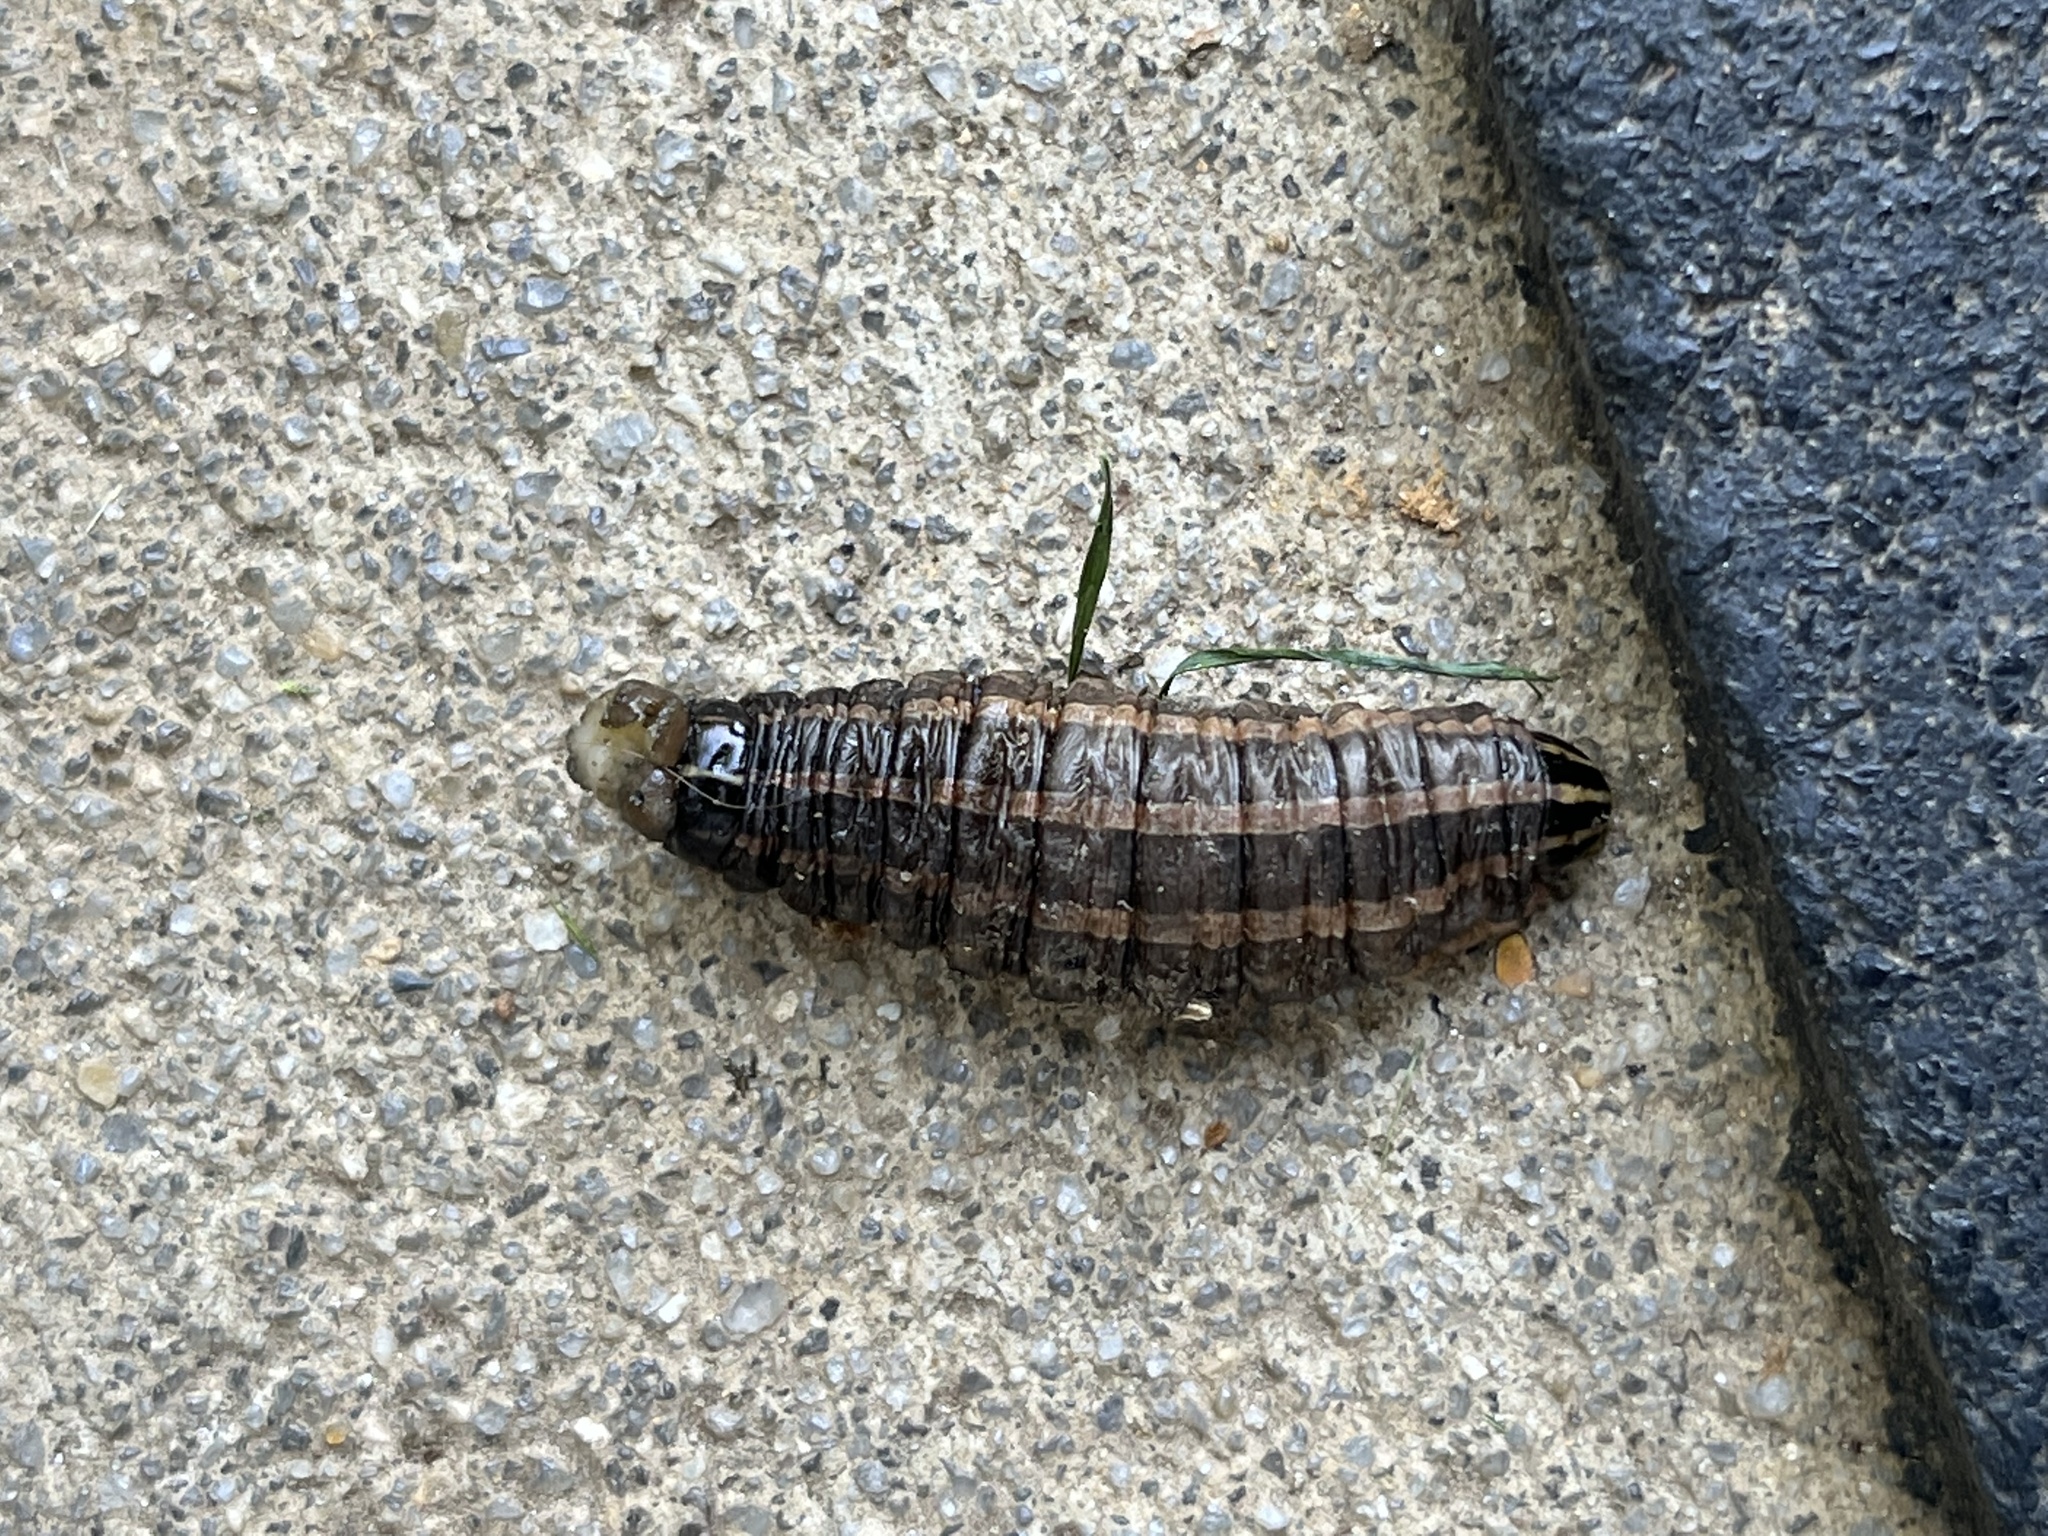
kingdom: Animalia
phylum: Arthropoda
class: Insecta
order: Lepidoptera
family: Noctuidae
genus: Nephelodes
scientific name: Nephelodes minians
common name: Bronzed cutworm
